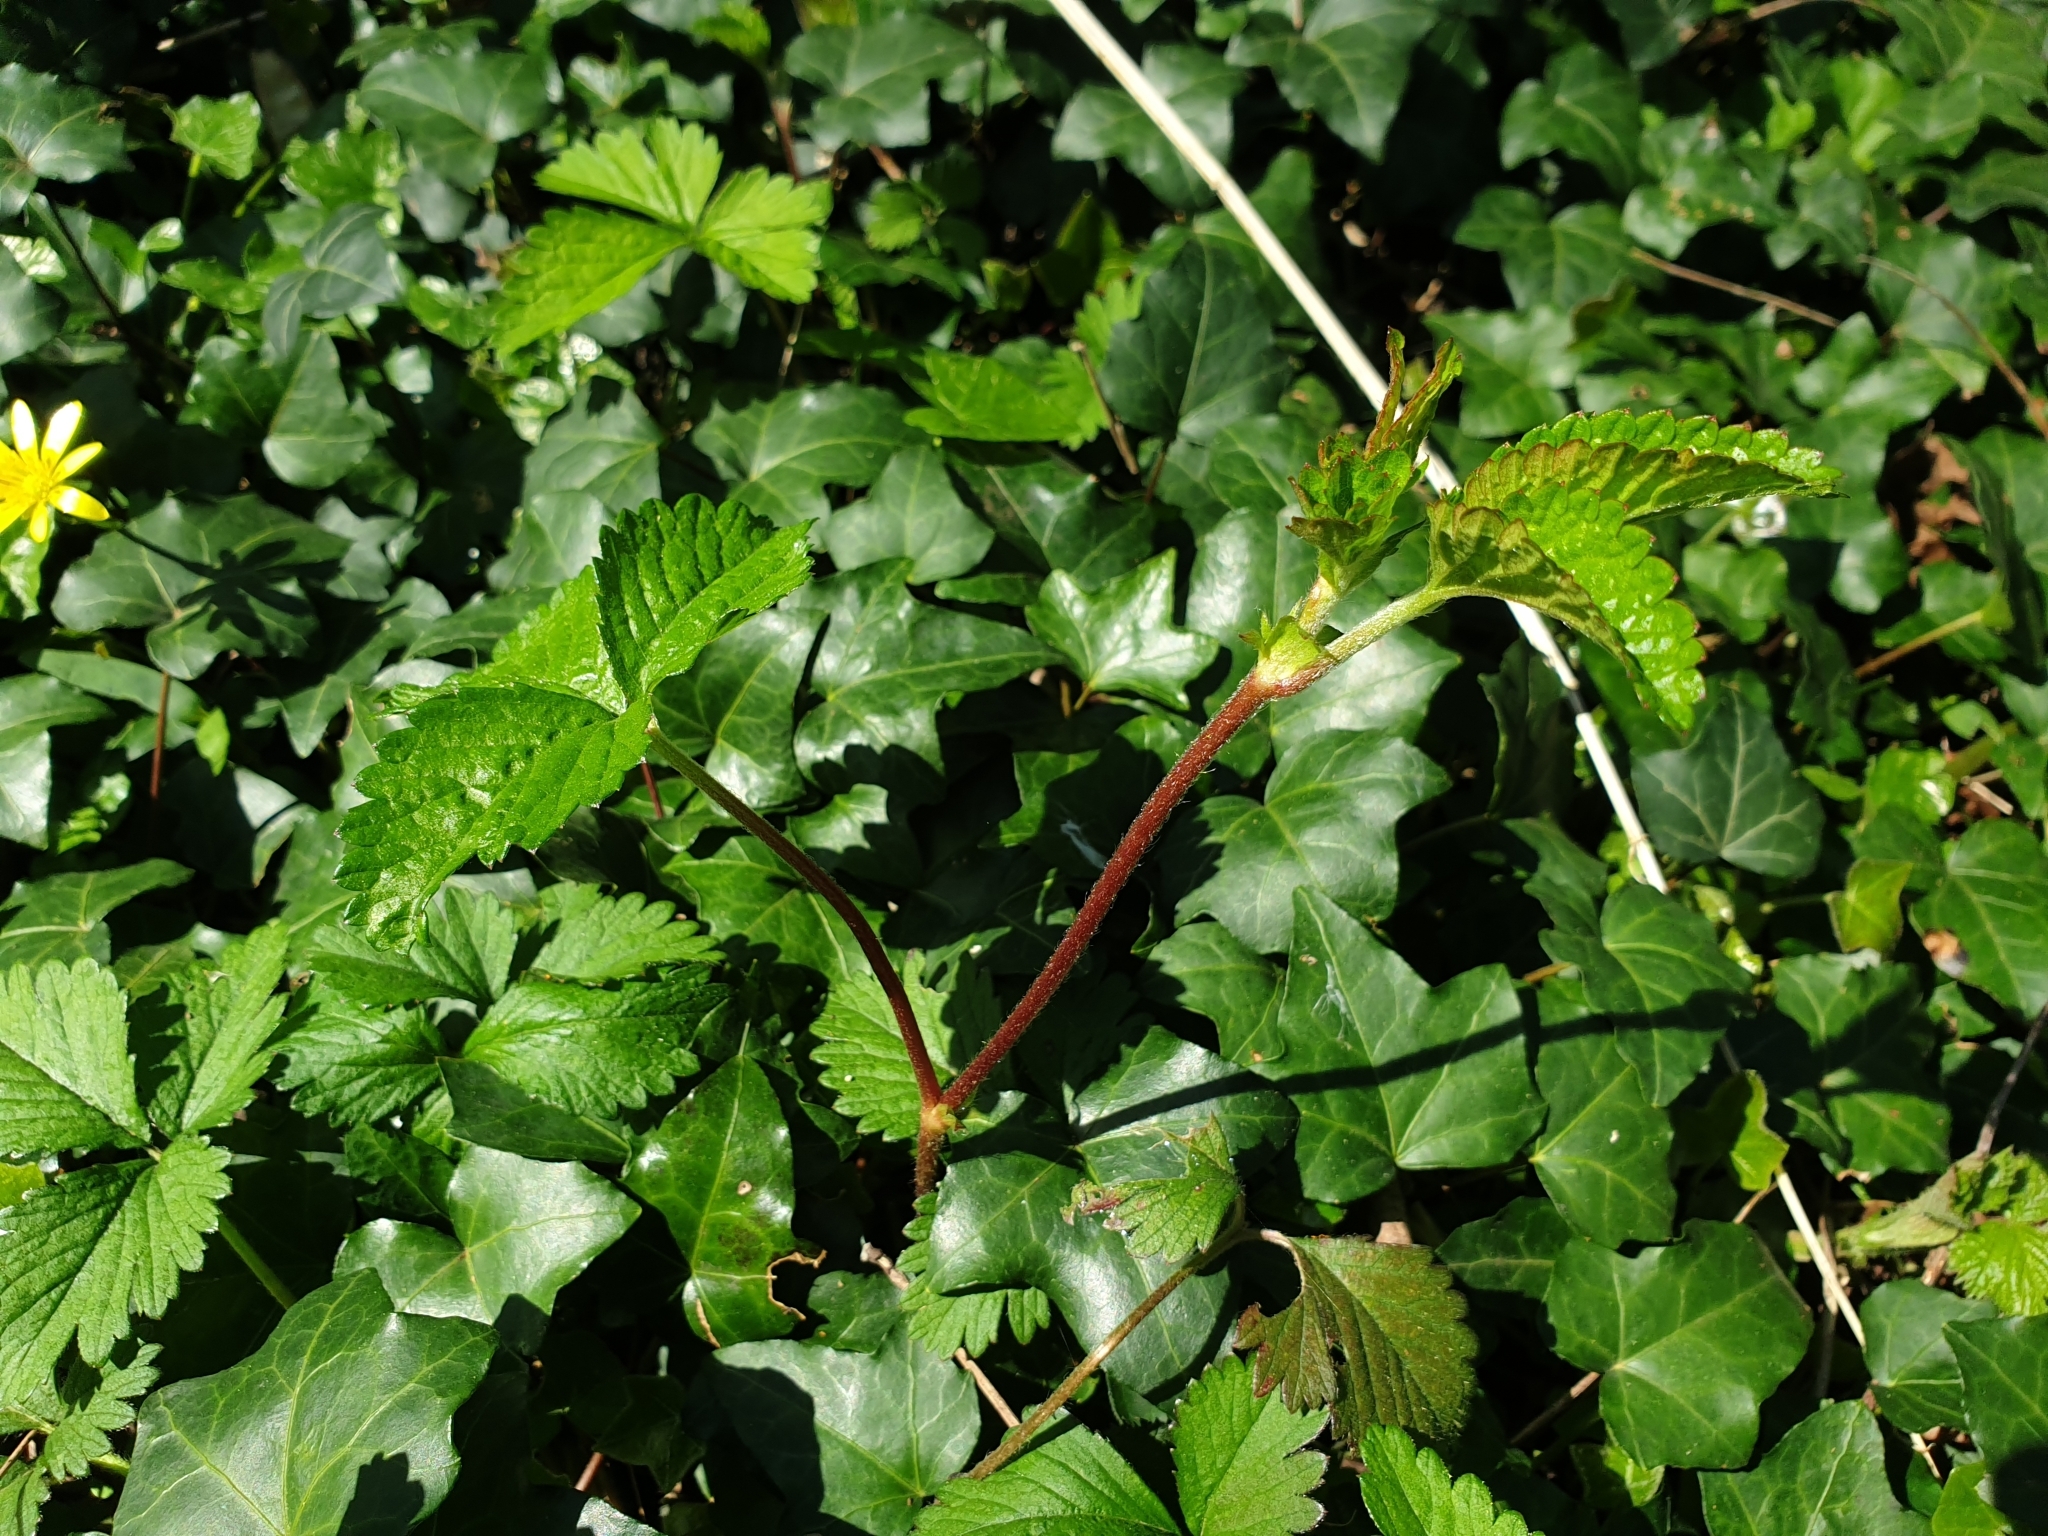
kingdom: Plantae
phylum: Tracheophyta
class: Magnoliopsida
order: Rosales
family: Rosaceae
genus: Potentilla
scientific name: Potentilla indica
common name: Yellow-flowered strawberry
